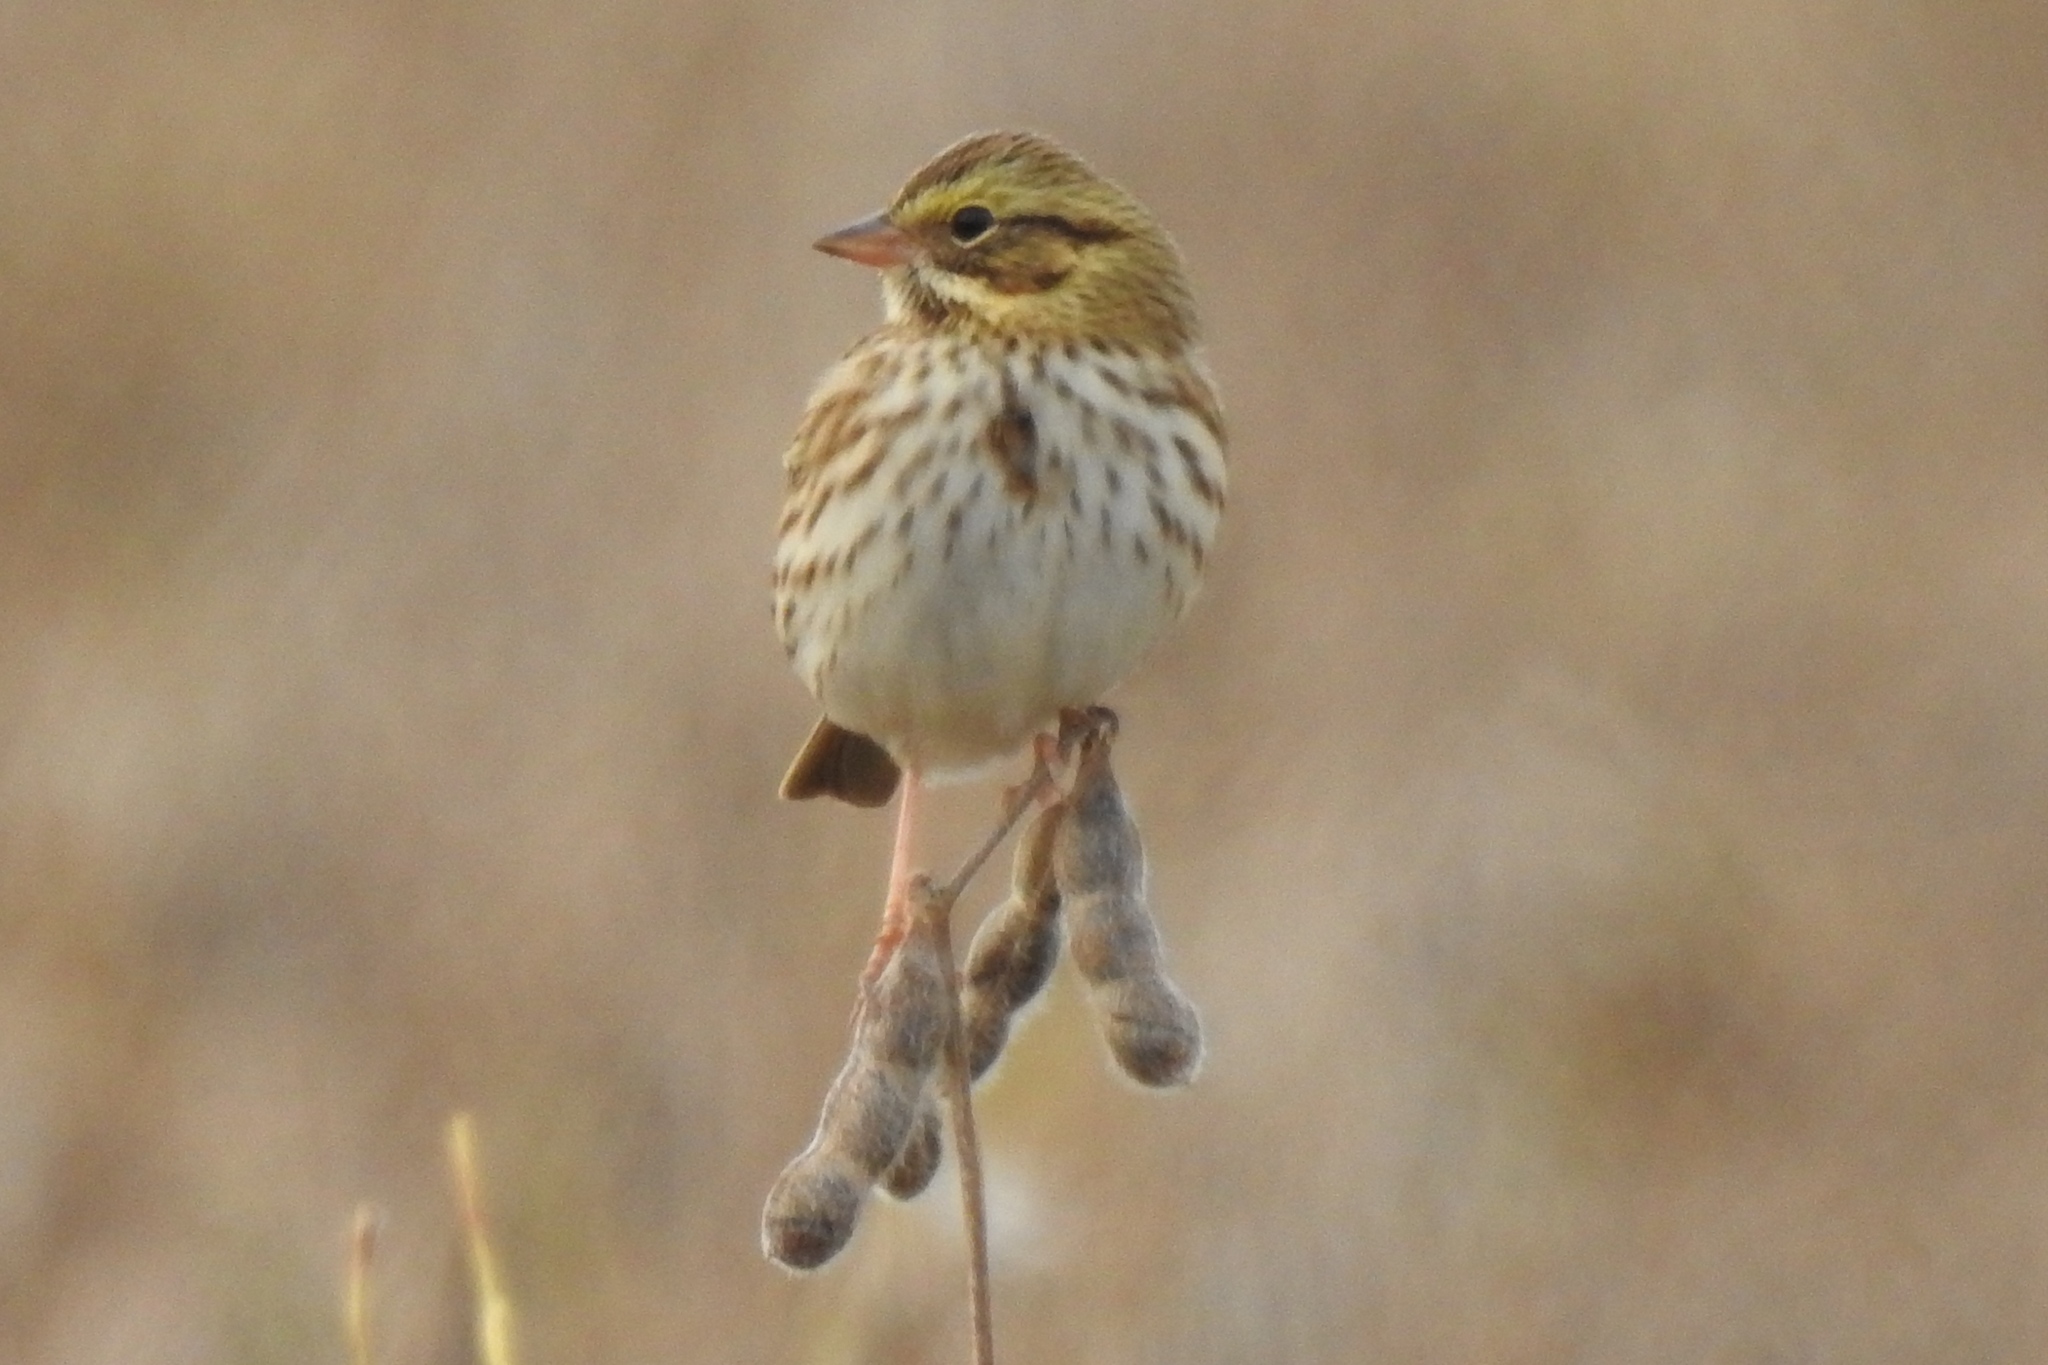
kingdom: Animalia
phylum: Chordata
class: Aves
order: Passeriformes
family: Passerellidae
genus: Passerculus
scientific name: Passerculus sandwichensis
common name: Savannah sparrow
